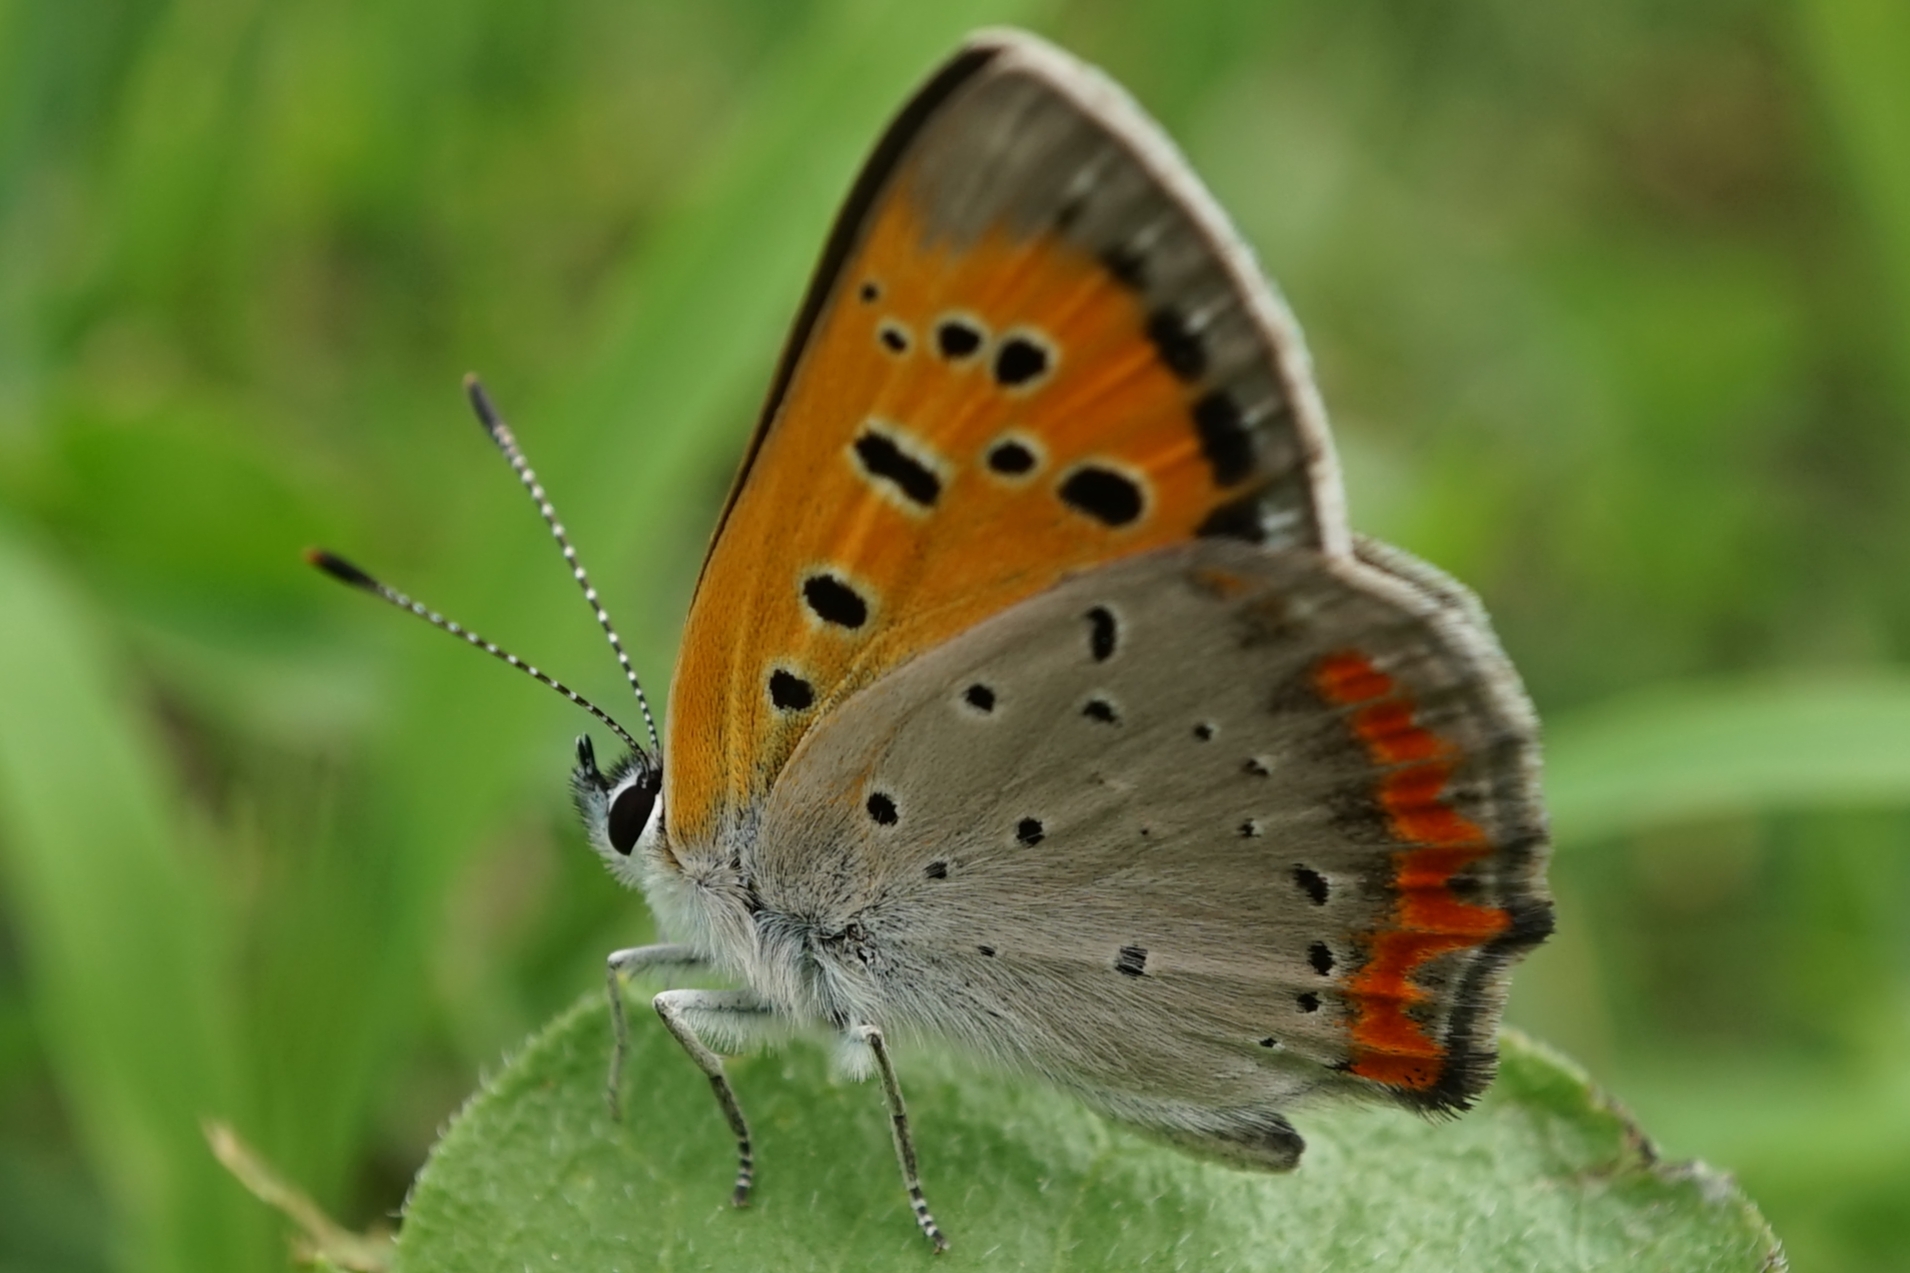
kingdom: Animalia
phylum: Arthropoda
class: Insecta
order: Lepidoptera
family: Lycaenidae
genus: Lycaena
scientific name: Lycaena phlaeas
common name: Small copper
